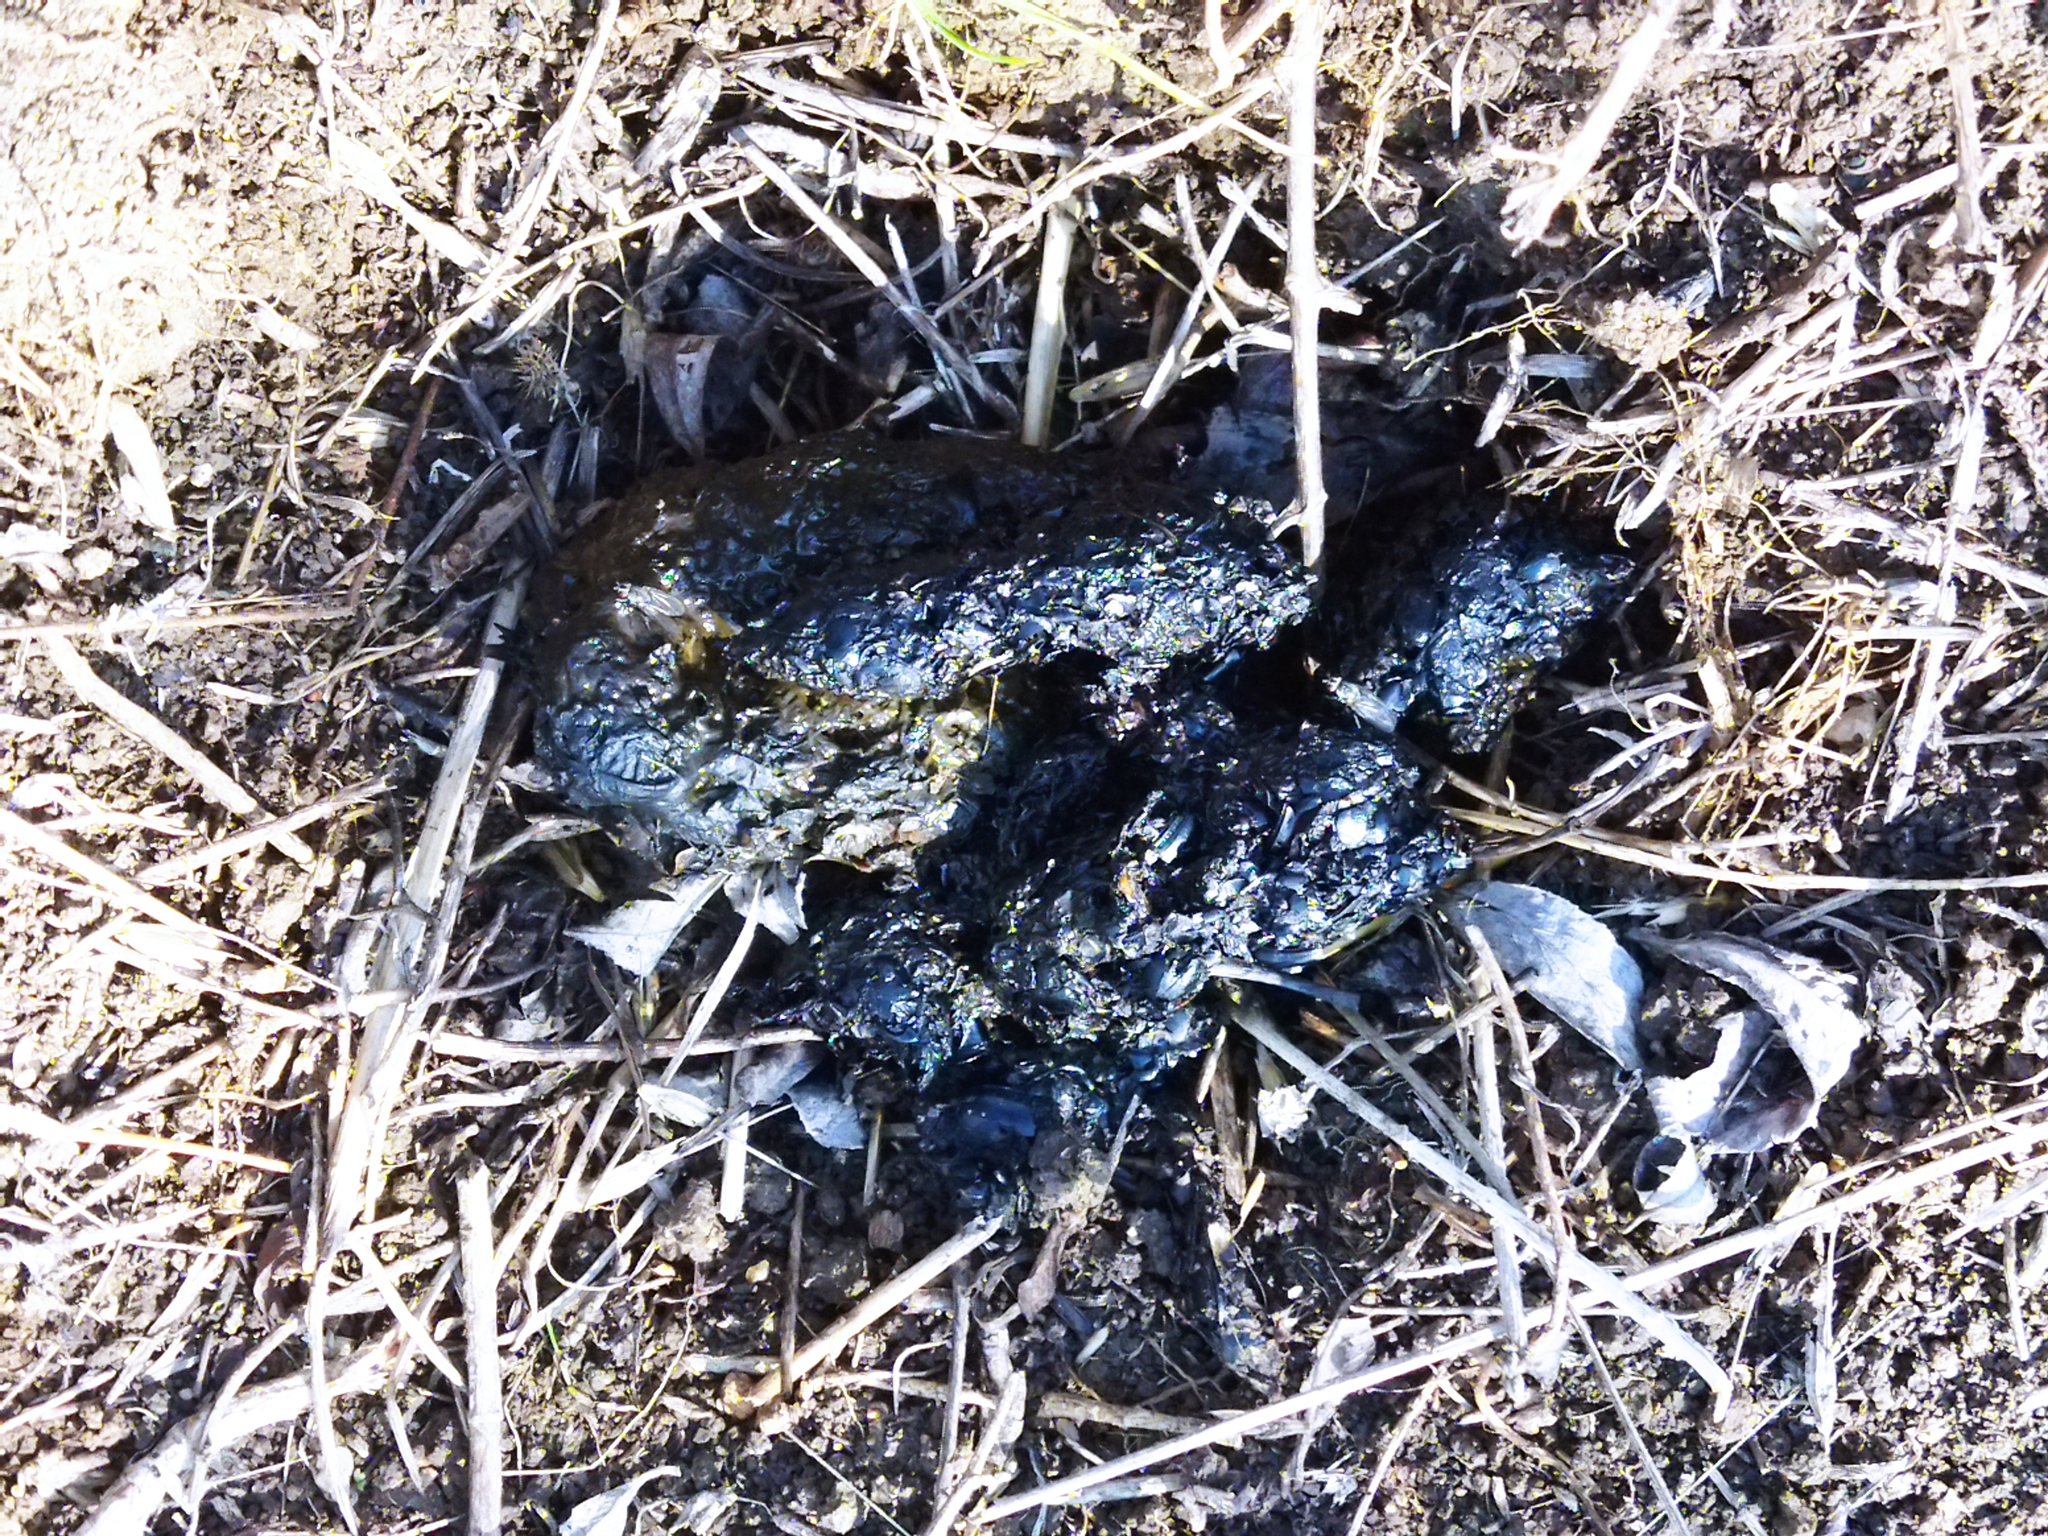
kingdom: Animalia
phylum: Chordata
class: Mammalia
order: Carnivora
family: Mustelidae
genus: Meles
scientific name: Meles meles
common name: Eurasian badger
